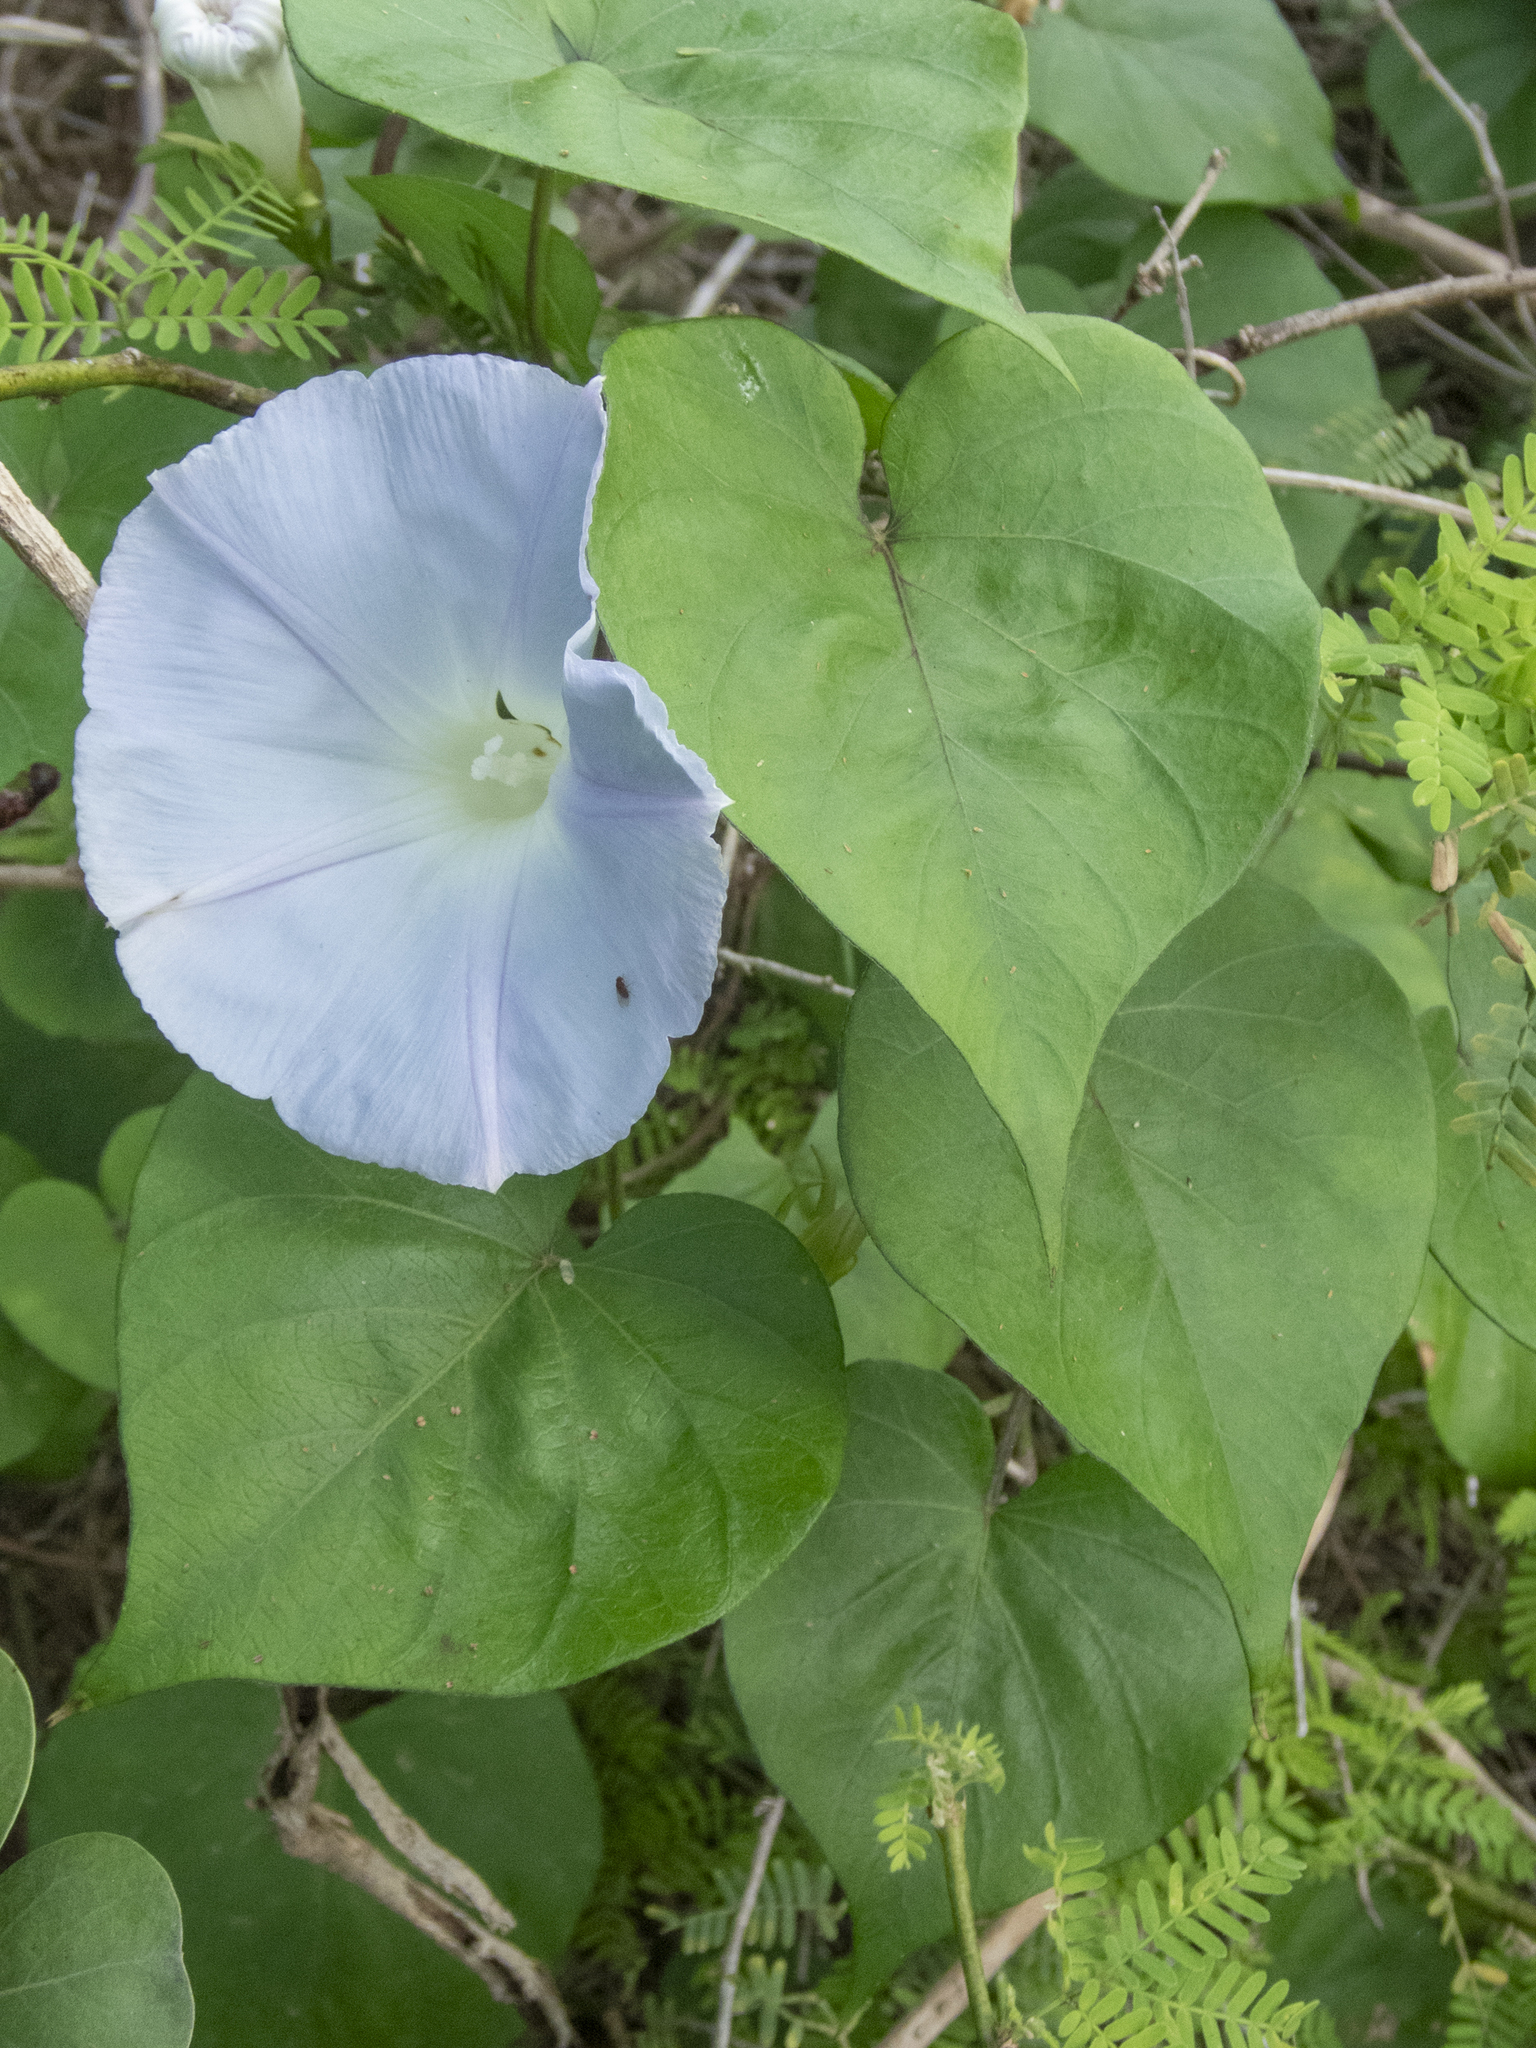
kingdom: Plantae
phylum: Tracheophyta
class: Magnoliopsida
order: Solanales
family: Convolvulaceae
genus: Ipomoea
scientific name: Ipomoea indica
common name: Blue dawnflower
